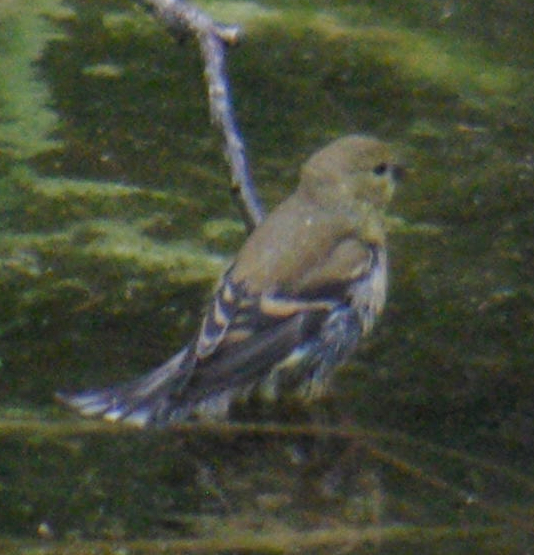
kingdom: Animalia
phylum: Chordata
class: Aves
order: Passeriformes
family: Fringillidae
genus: Spinus
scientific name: Spinus tristis
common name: American goldfinch
